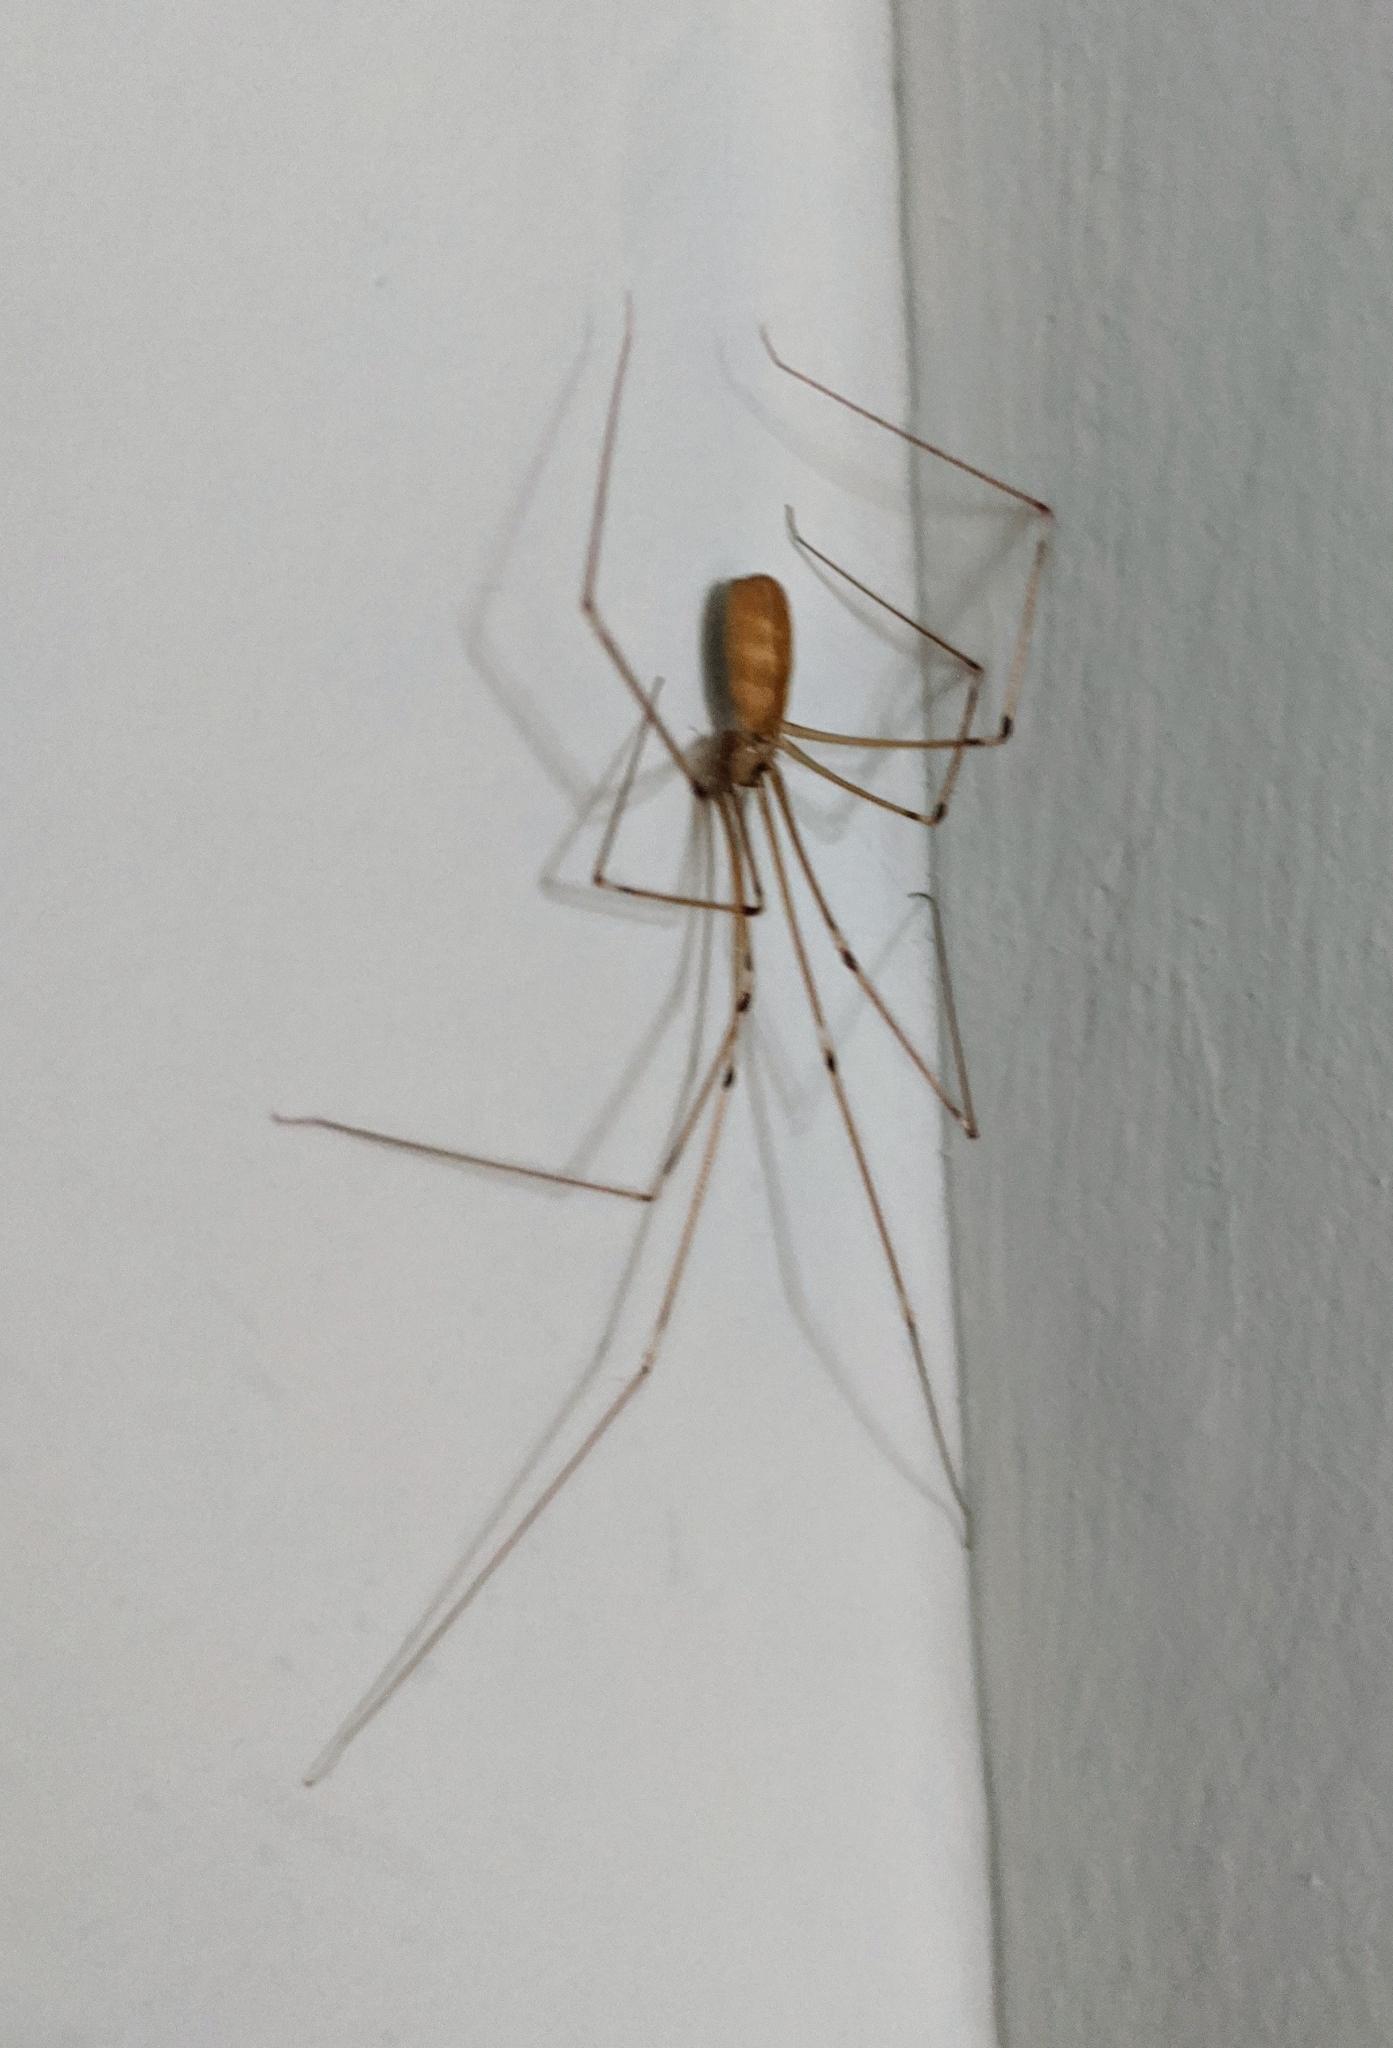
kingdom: Animalia
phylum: Arthropoda
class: Arachnida
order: Araneae
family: Pholcidae
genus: Pholcus
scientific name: Pholcus phalangioides
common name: Longbodied cellar spider
